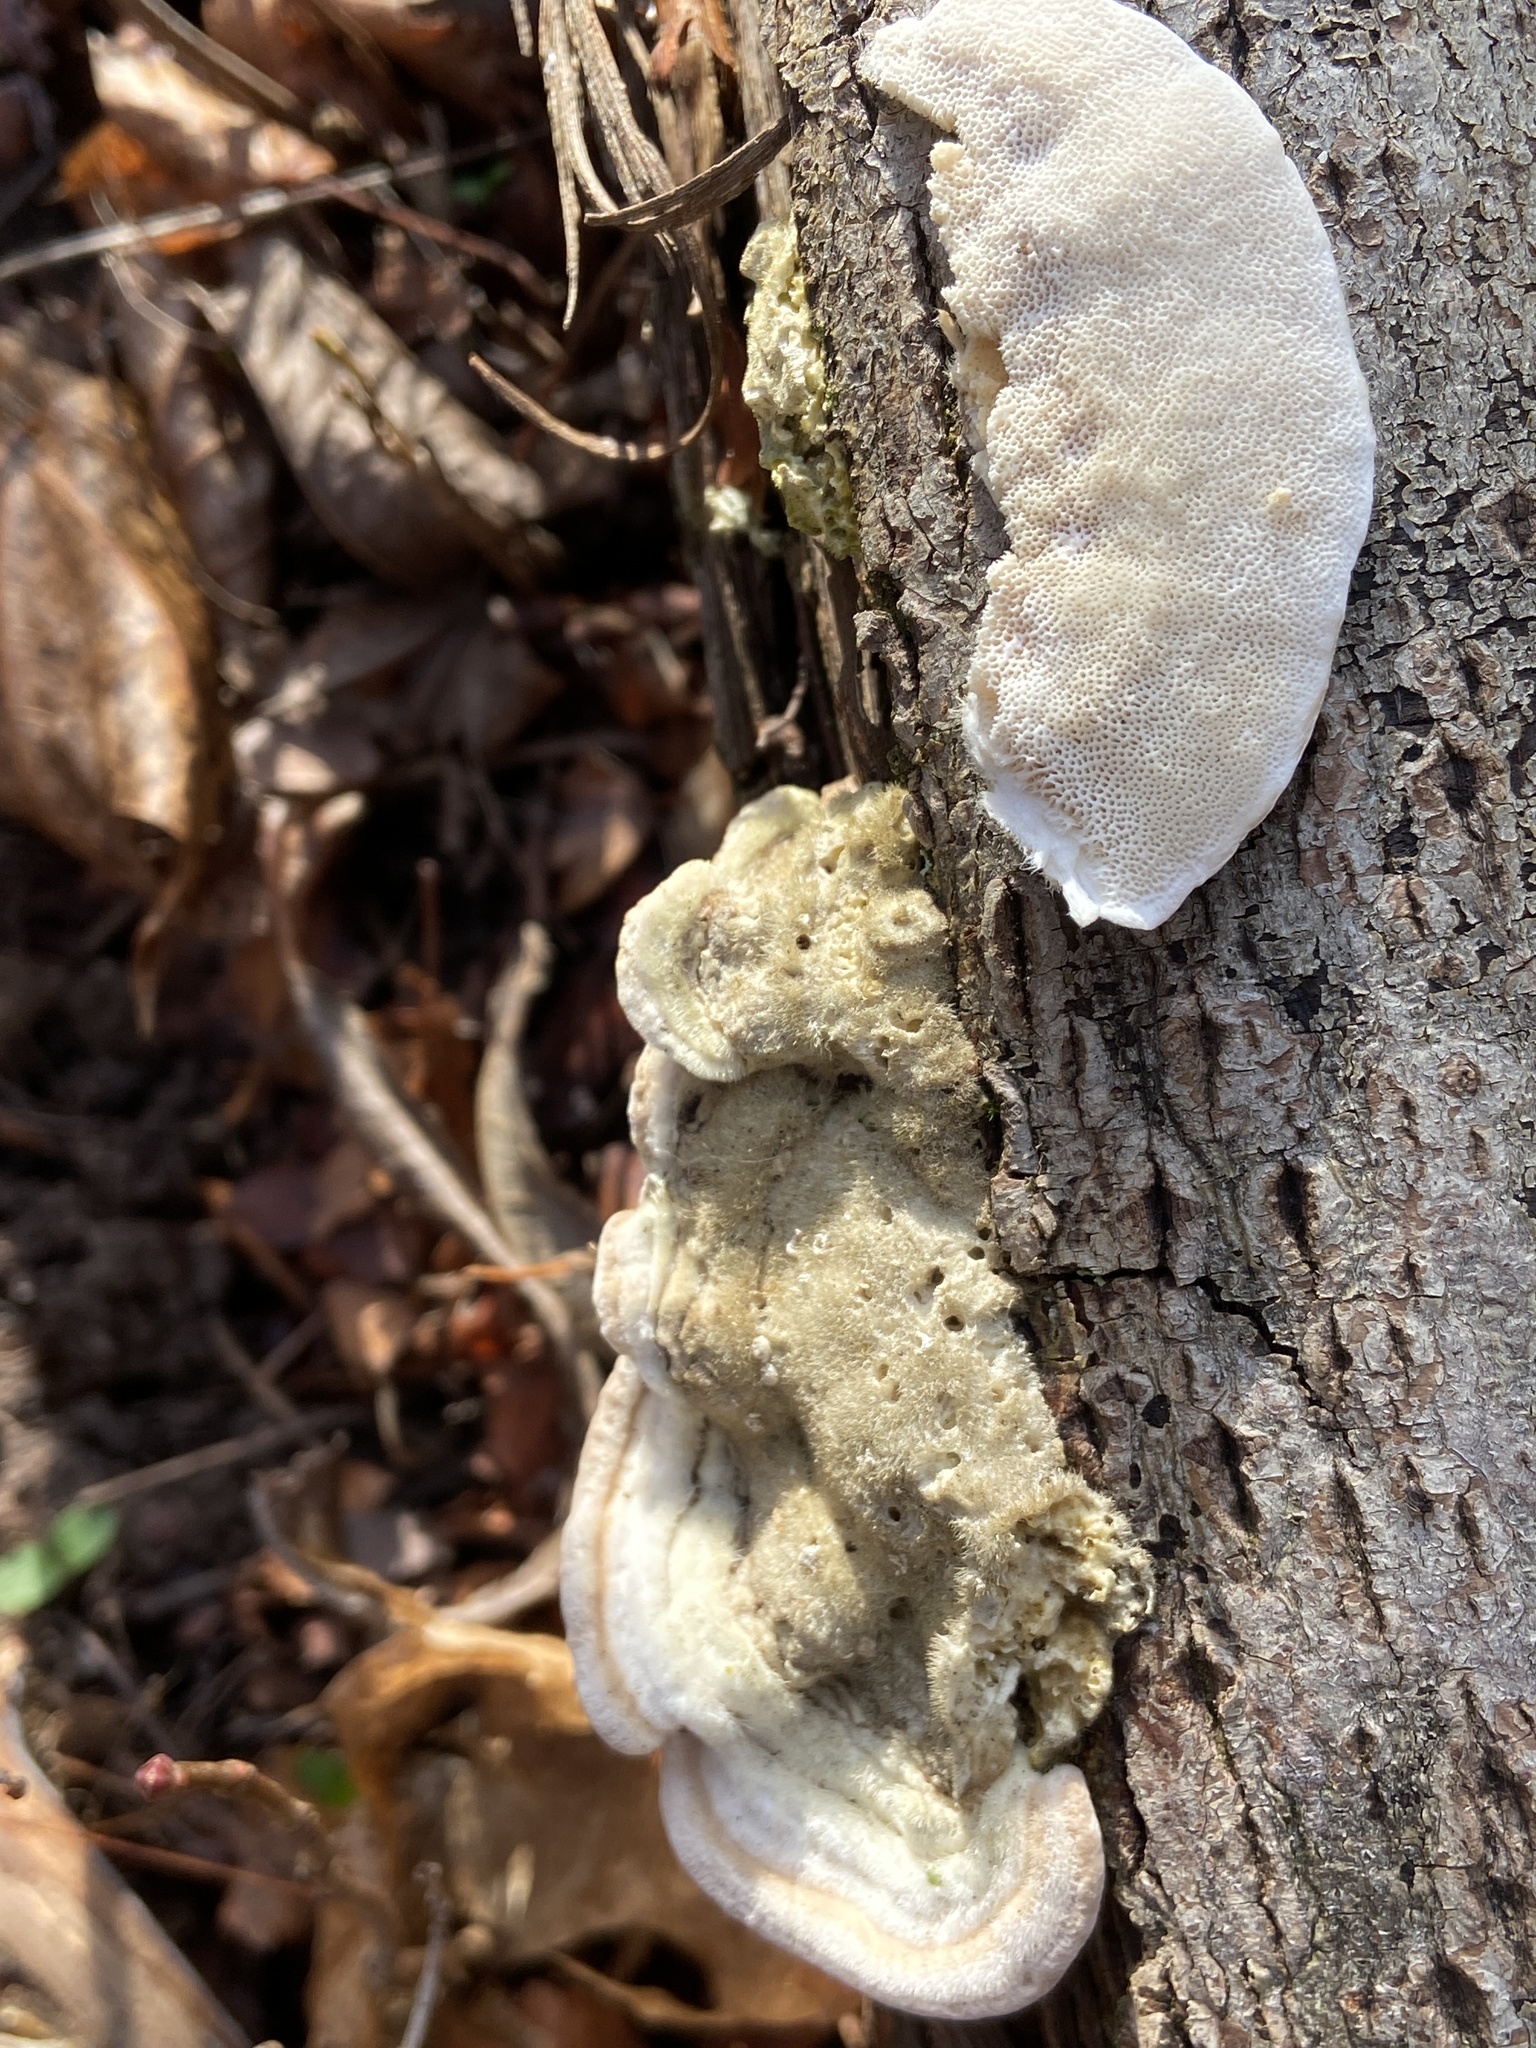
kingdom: Fungi
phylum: Basidiomycota
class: Agaricomycetes
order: Polyporales
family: Polyporaceae
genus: Trametes
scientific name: Trametes hirsuta
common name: Hairy bracket
